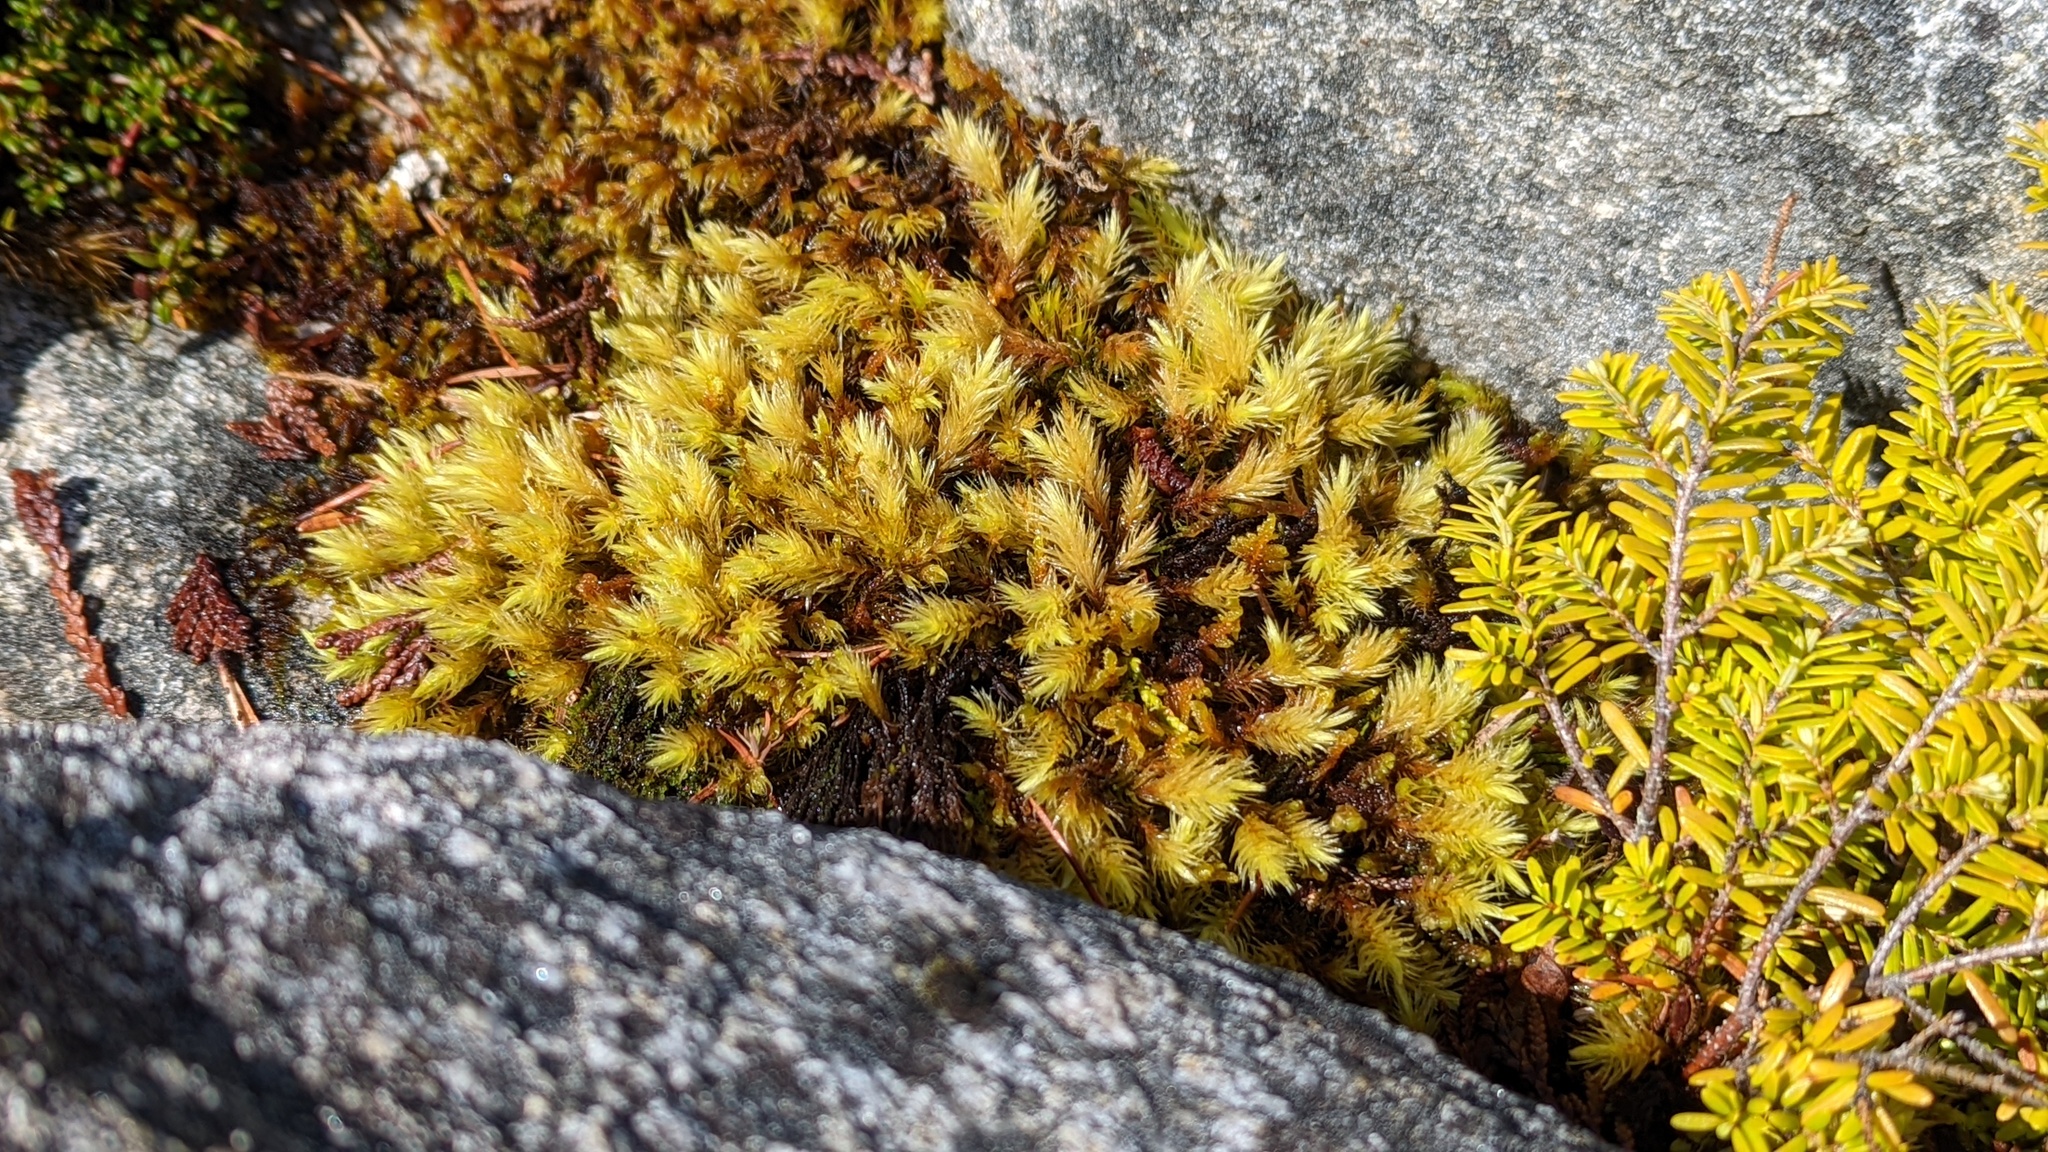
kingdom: Plantae
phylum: Bryophyta
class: Bryopsida
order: Aulacomniales
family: Aulacomniaceae
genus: Aulacomnium
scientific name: Aulacomnium palustre
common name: Bog groove-moss
